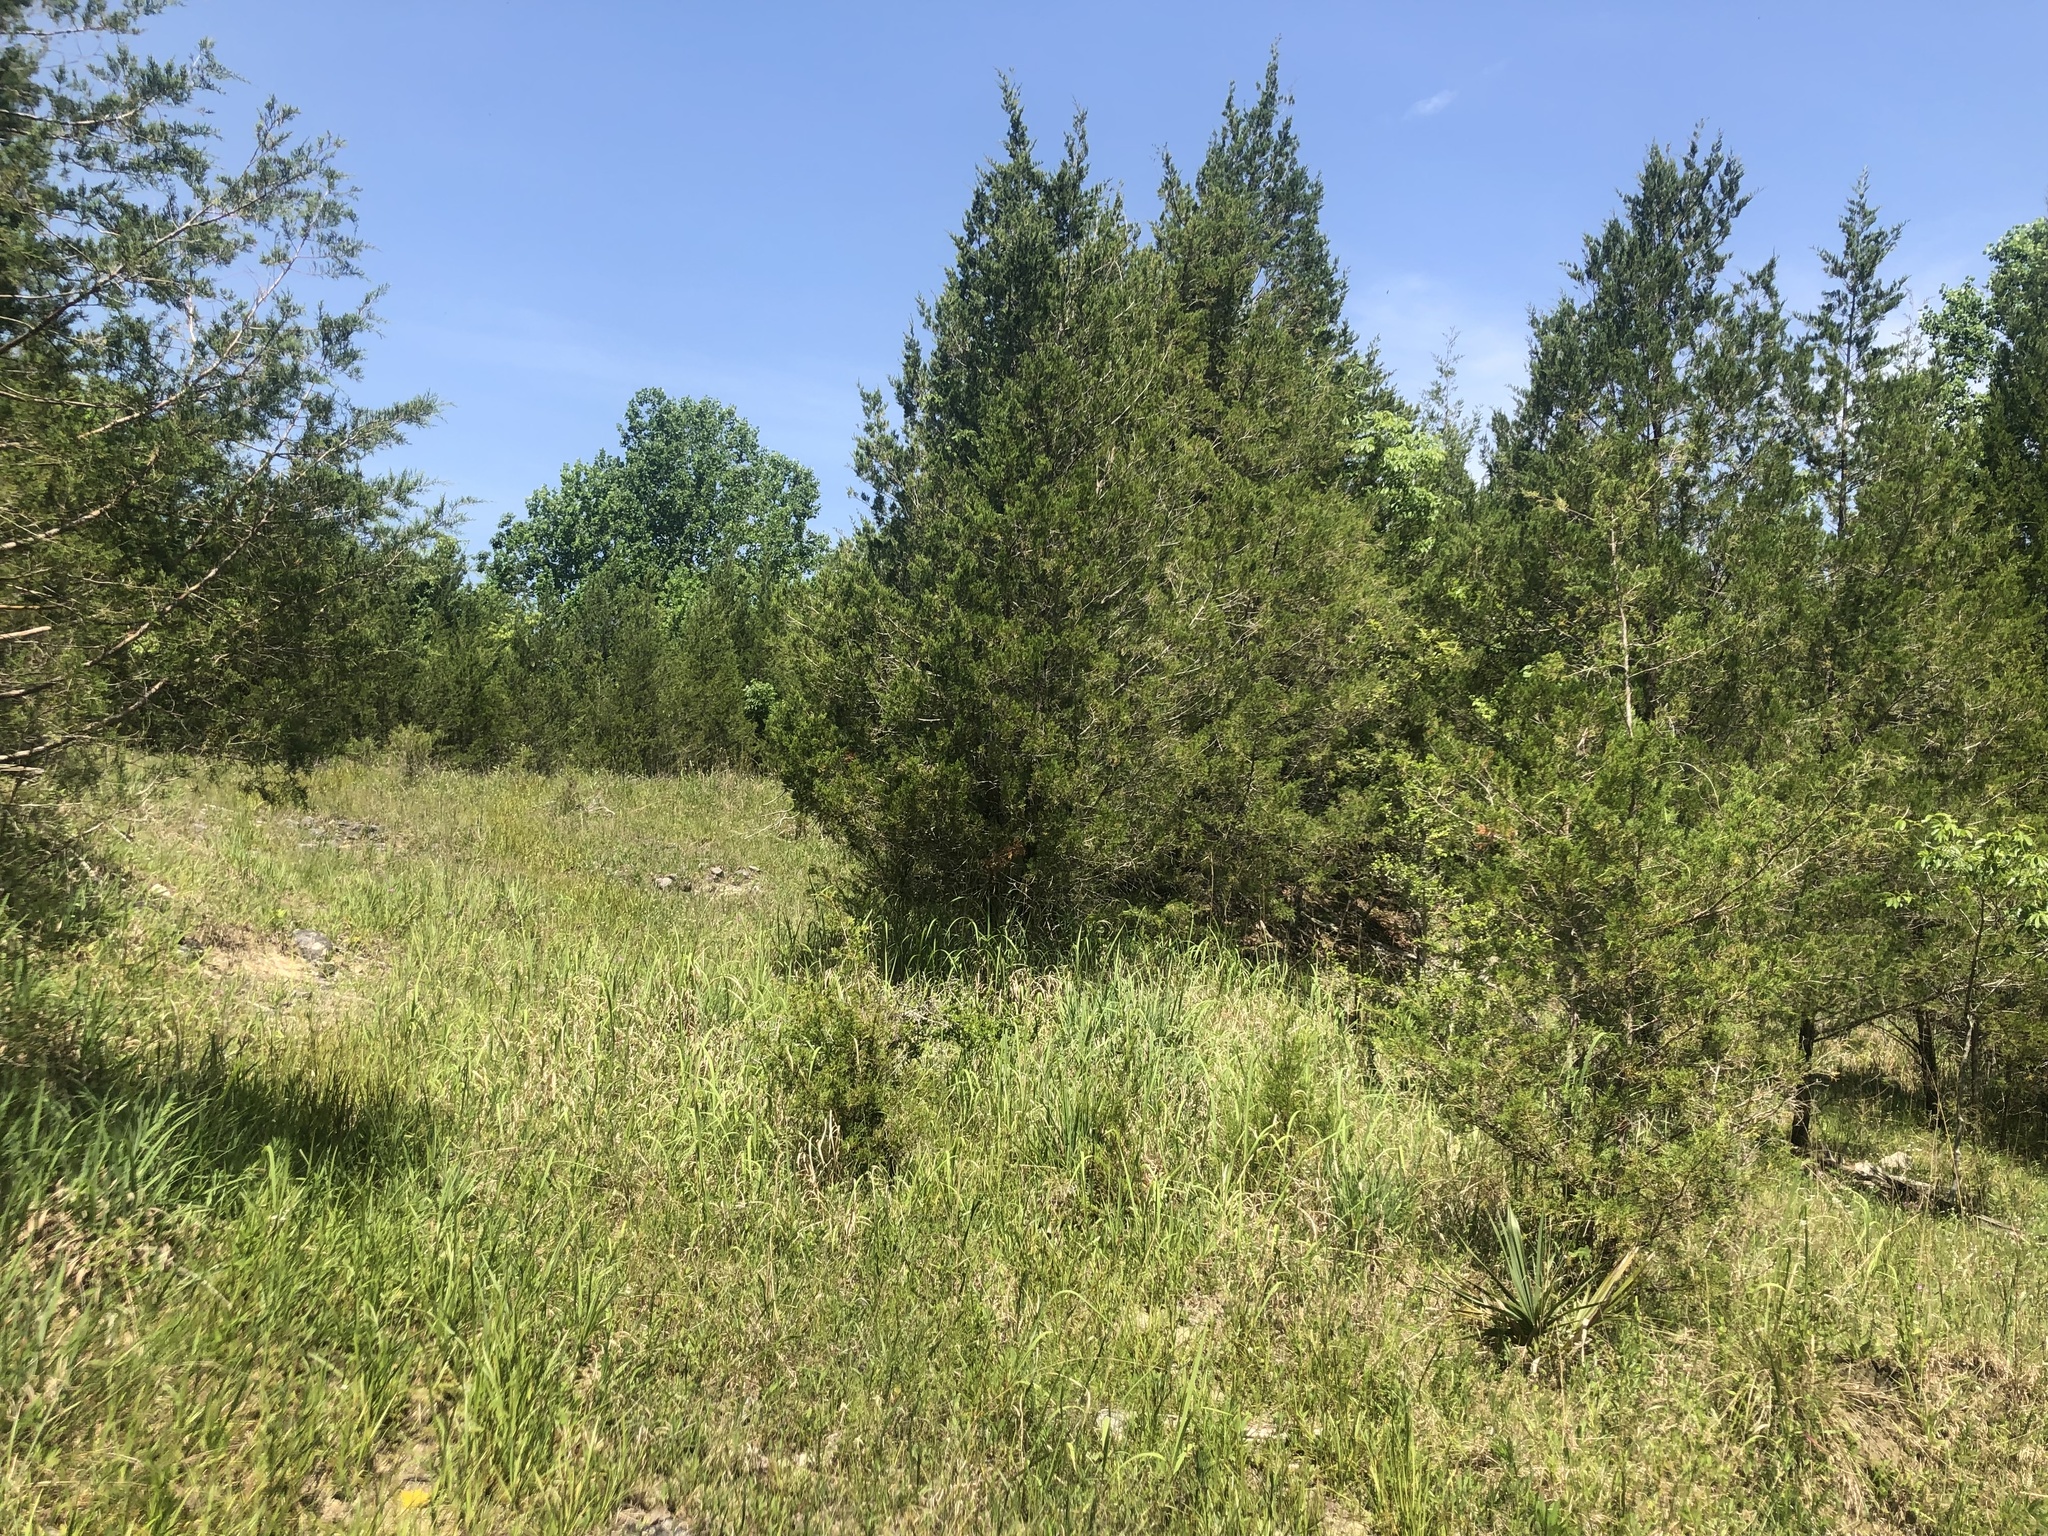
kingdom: Plantae
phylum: Tracheophyta
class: Liliopsida
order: Poales
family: Cyperaceae
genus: Rhynchospora
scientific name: Rhynchospora colorata
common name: Star sedge
